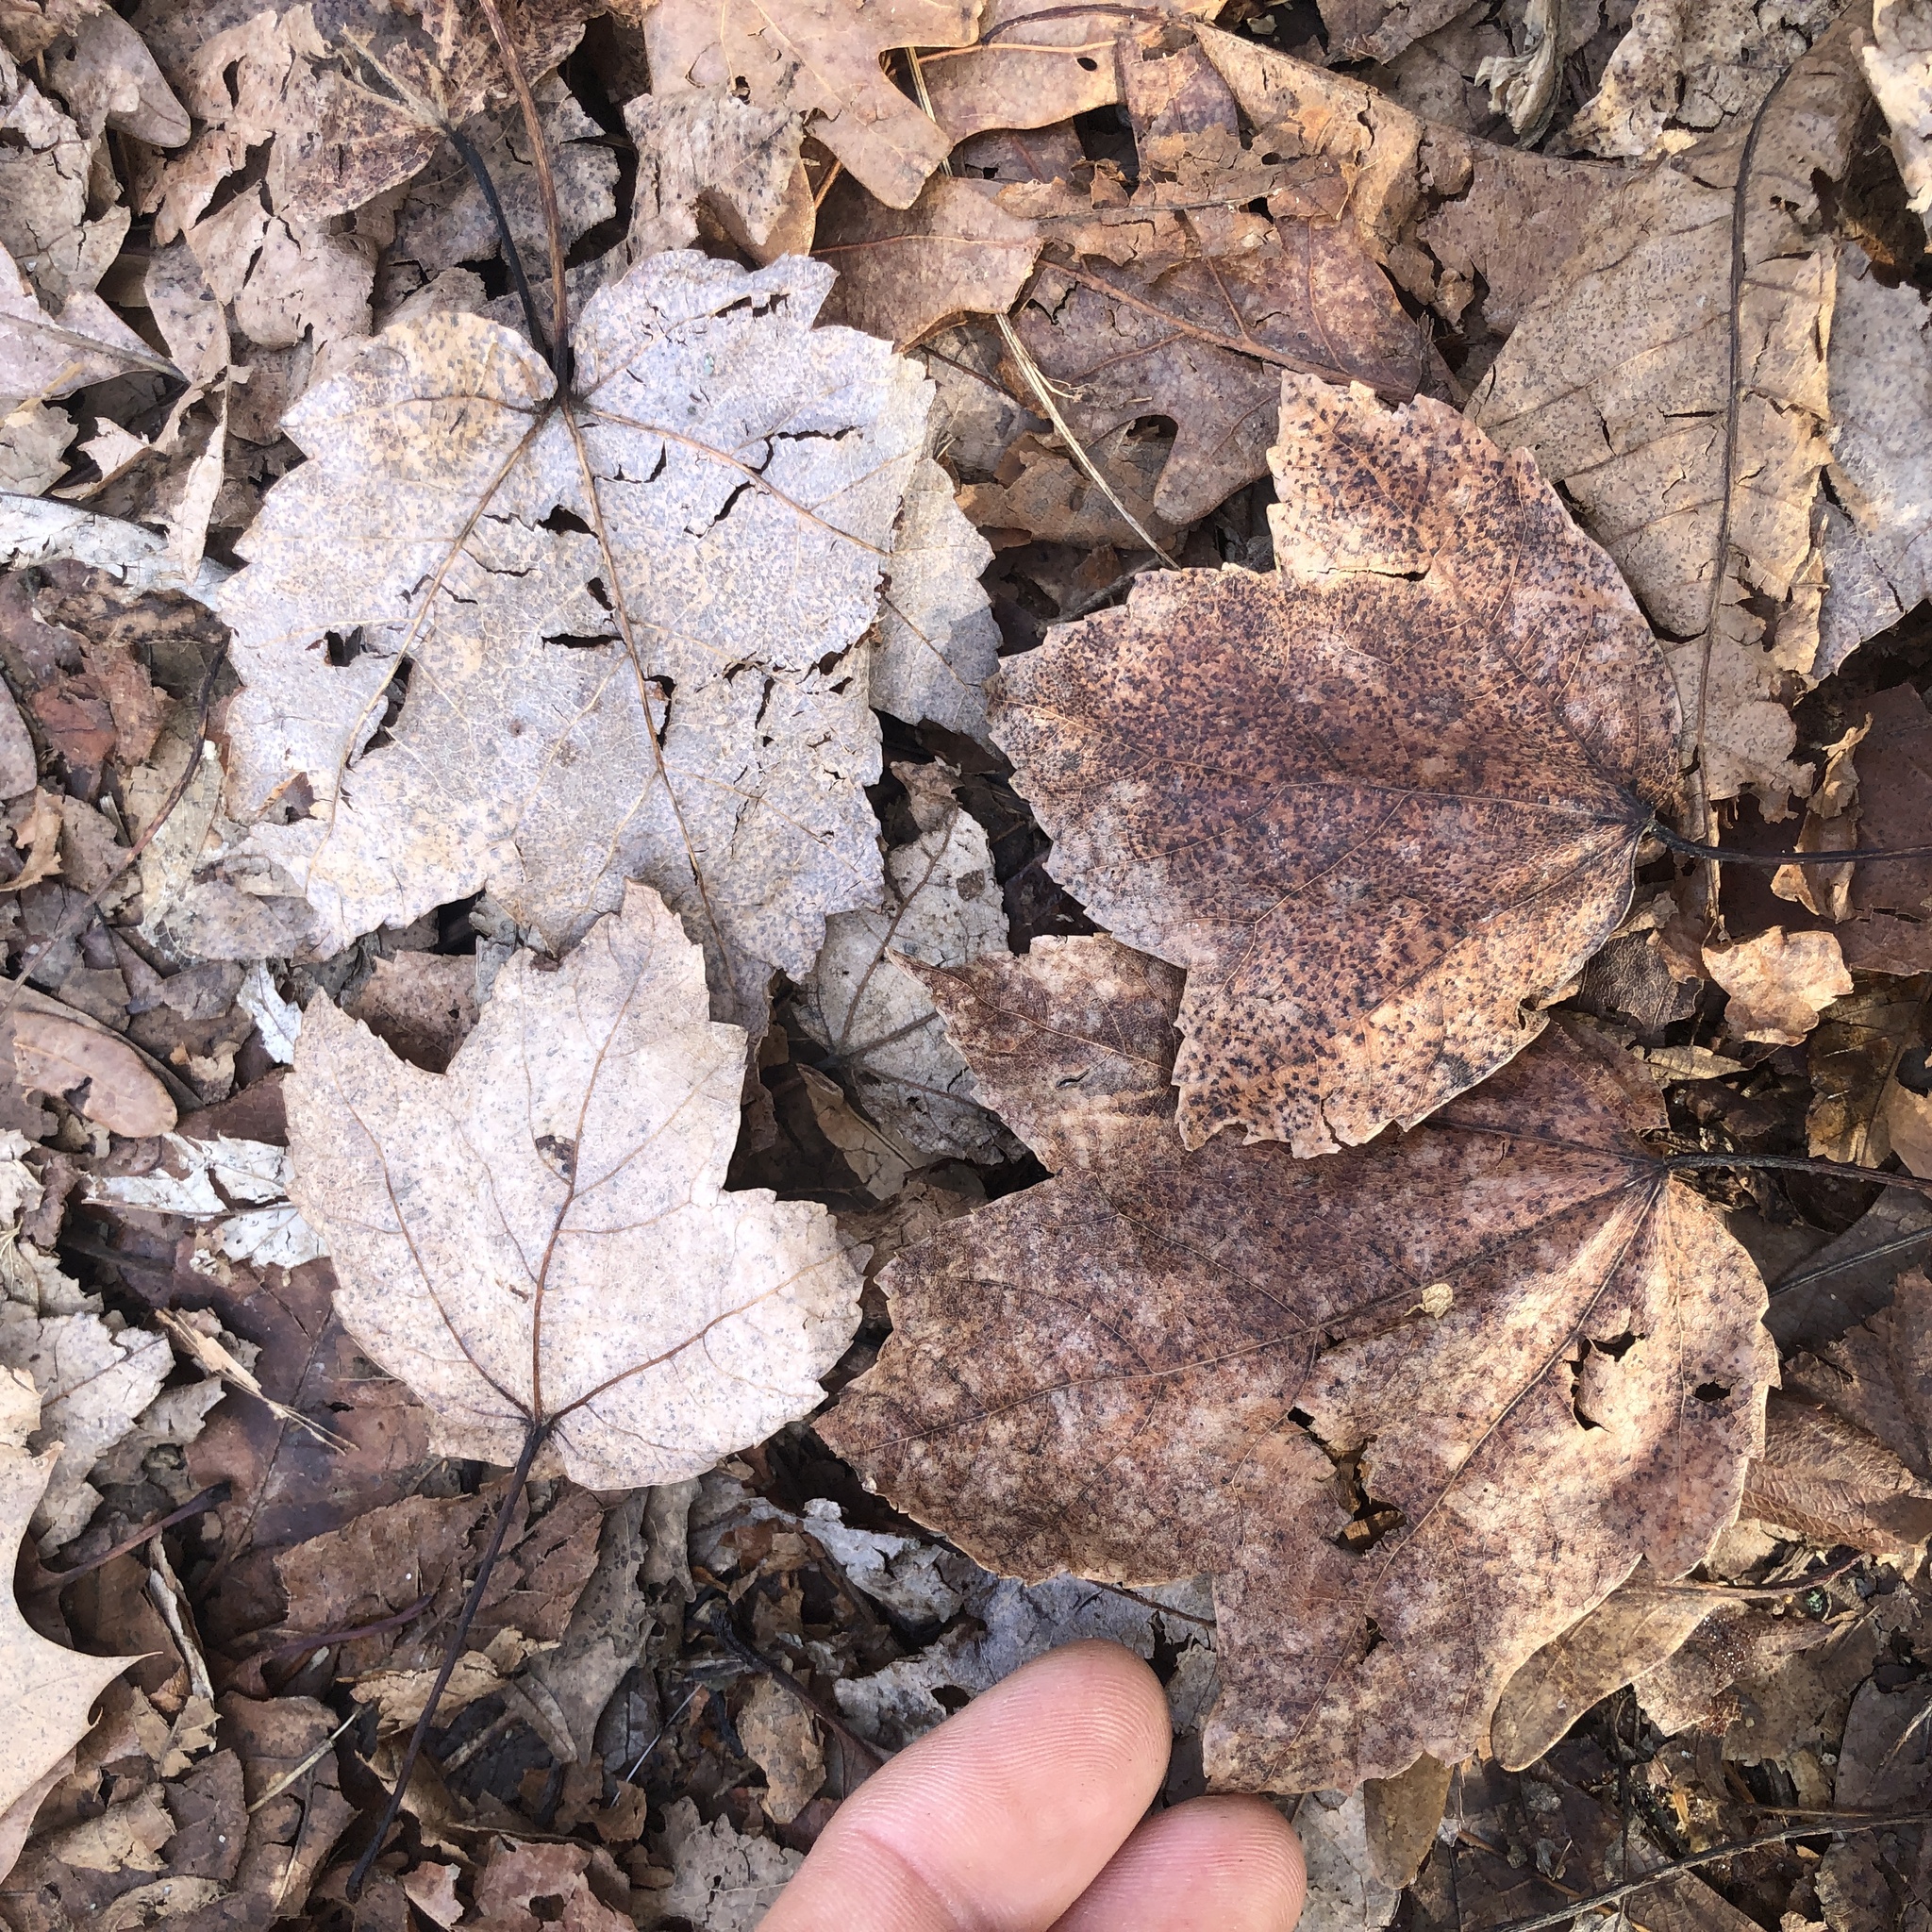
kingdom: Plantae
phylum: Tracheophyta
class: Magnoliopsida
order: Sapindales
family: Sapindaceae
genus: Acer
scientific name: Acer rubrum
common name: Red maple
